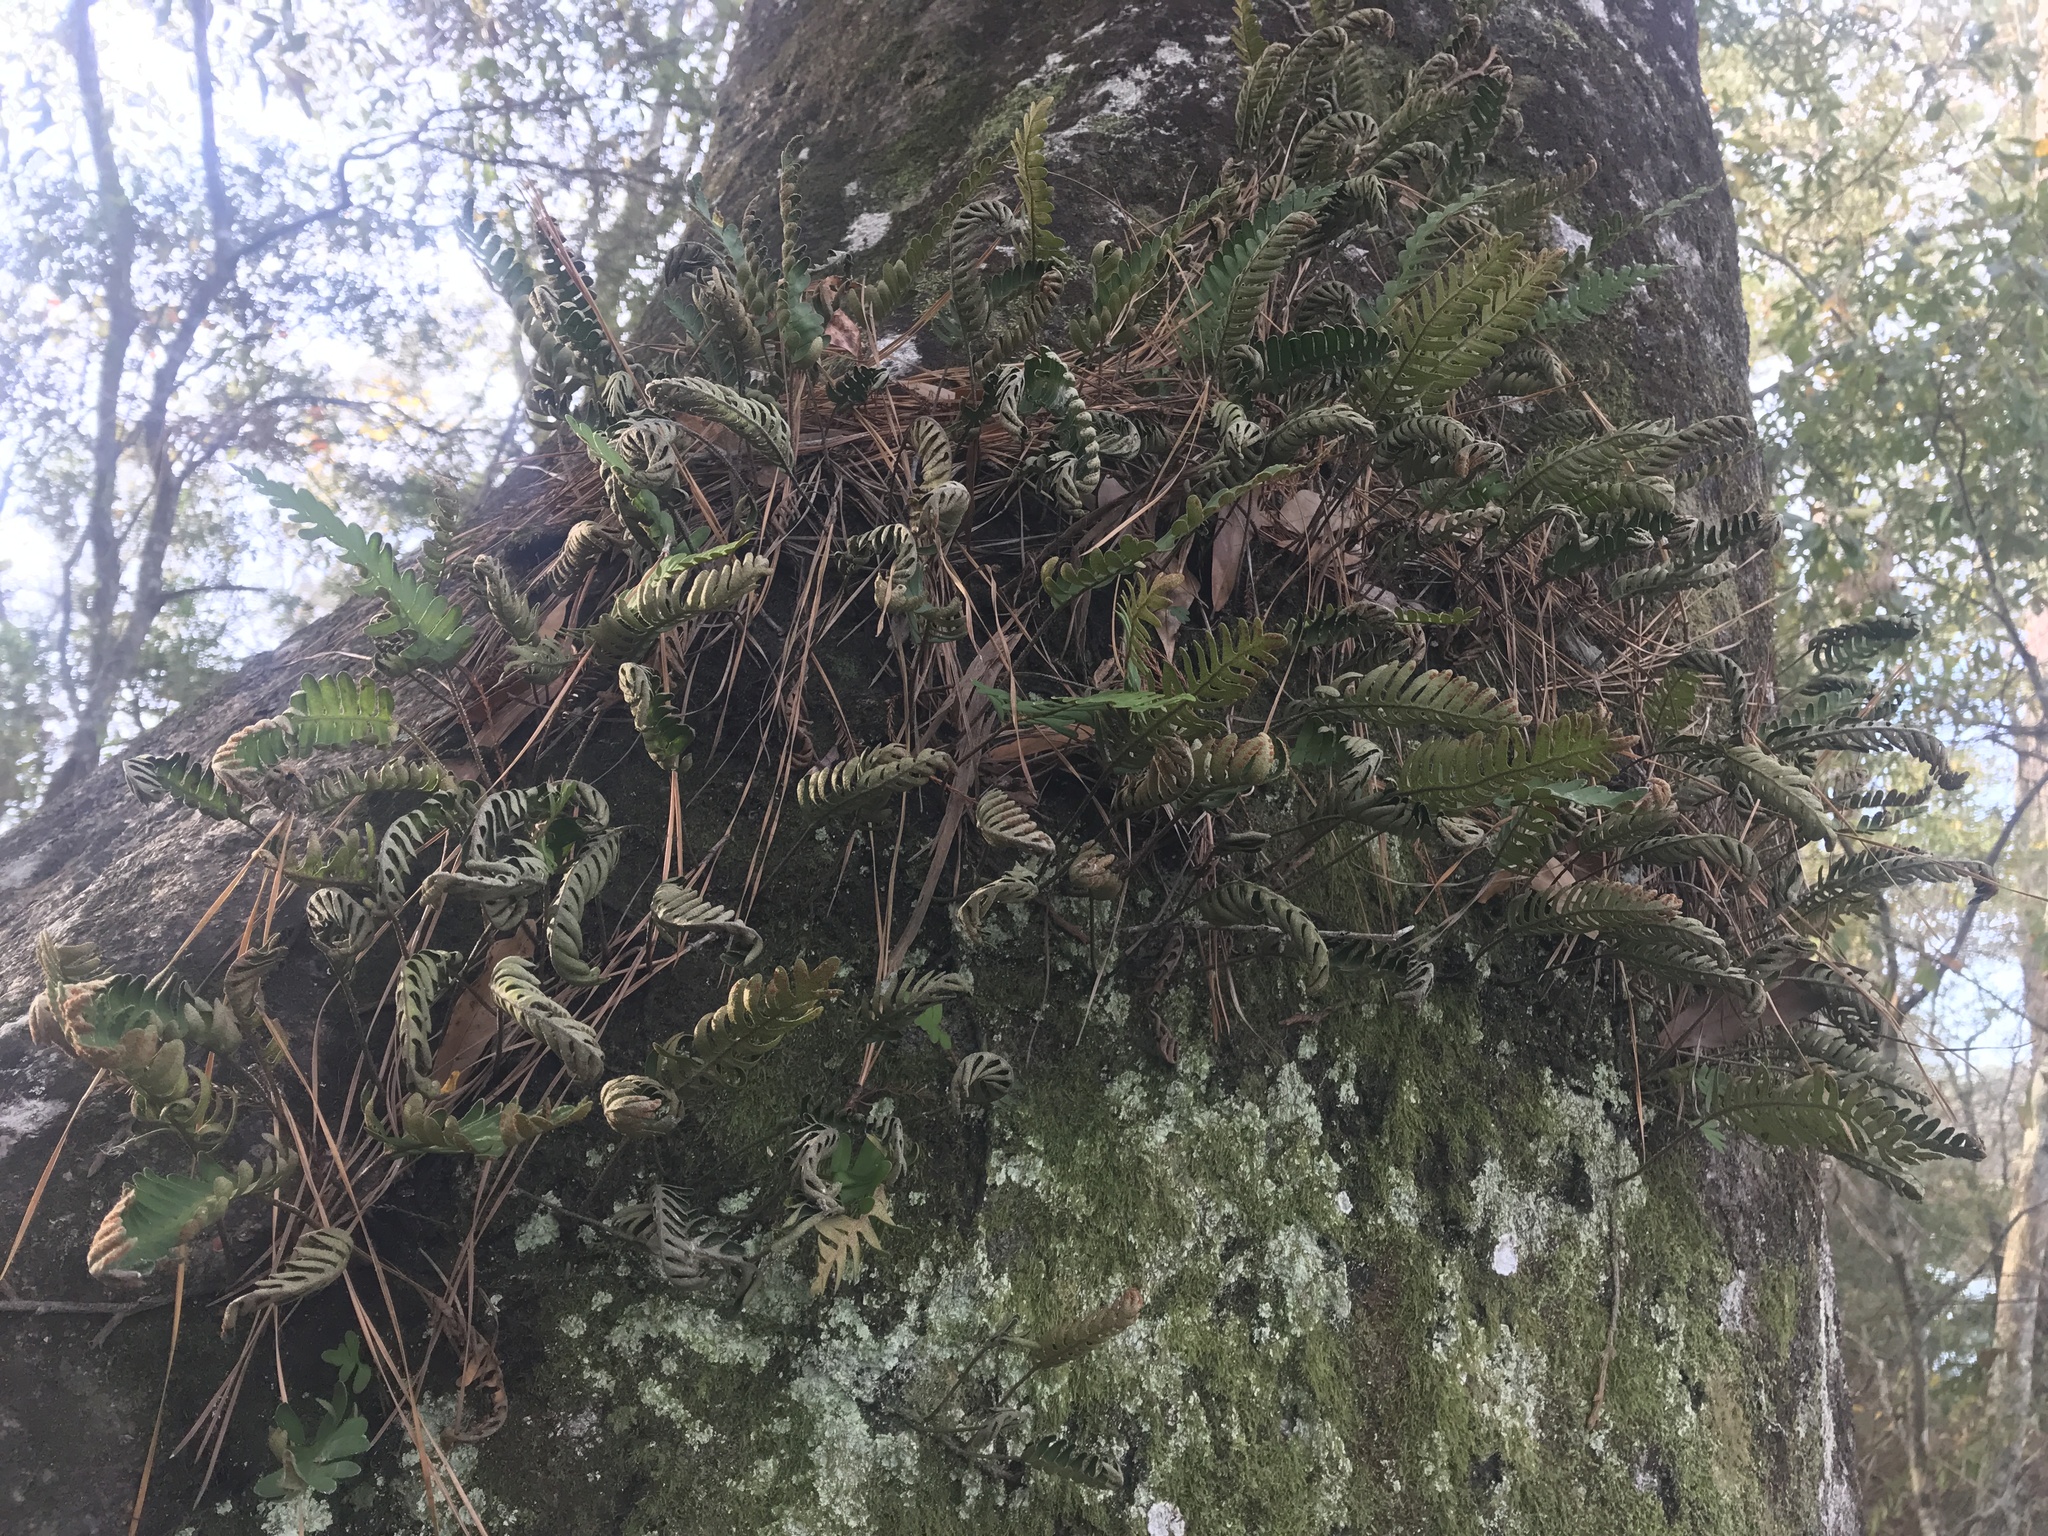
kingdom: Plantae
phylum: Tracheophyta
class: Polypodiopsida
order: Polypodiales
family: Polypodiaceae
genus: Pleopeltis
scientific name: Pleopeltis michauxiana
